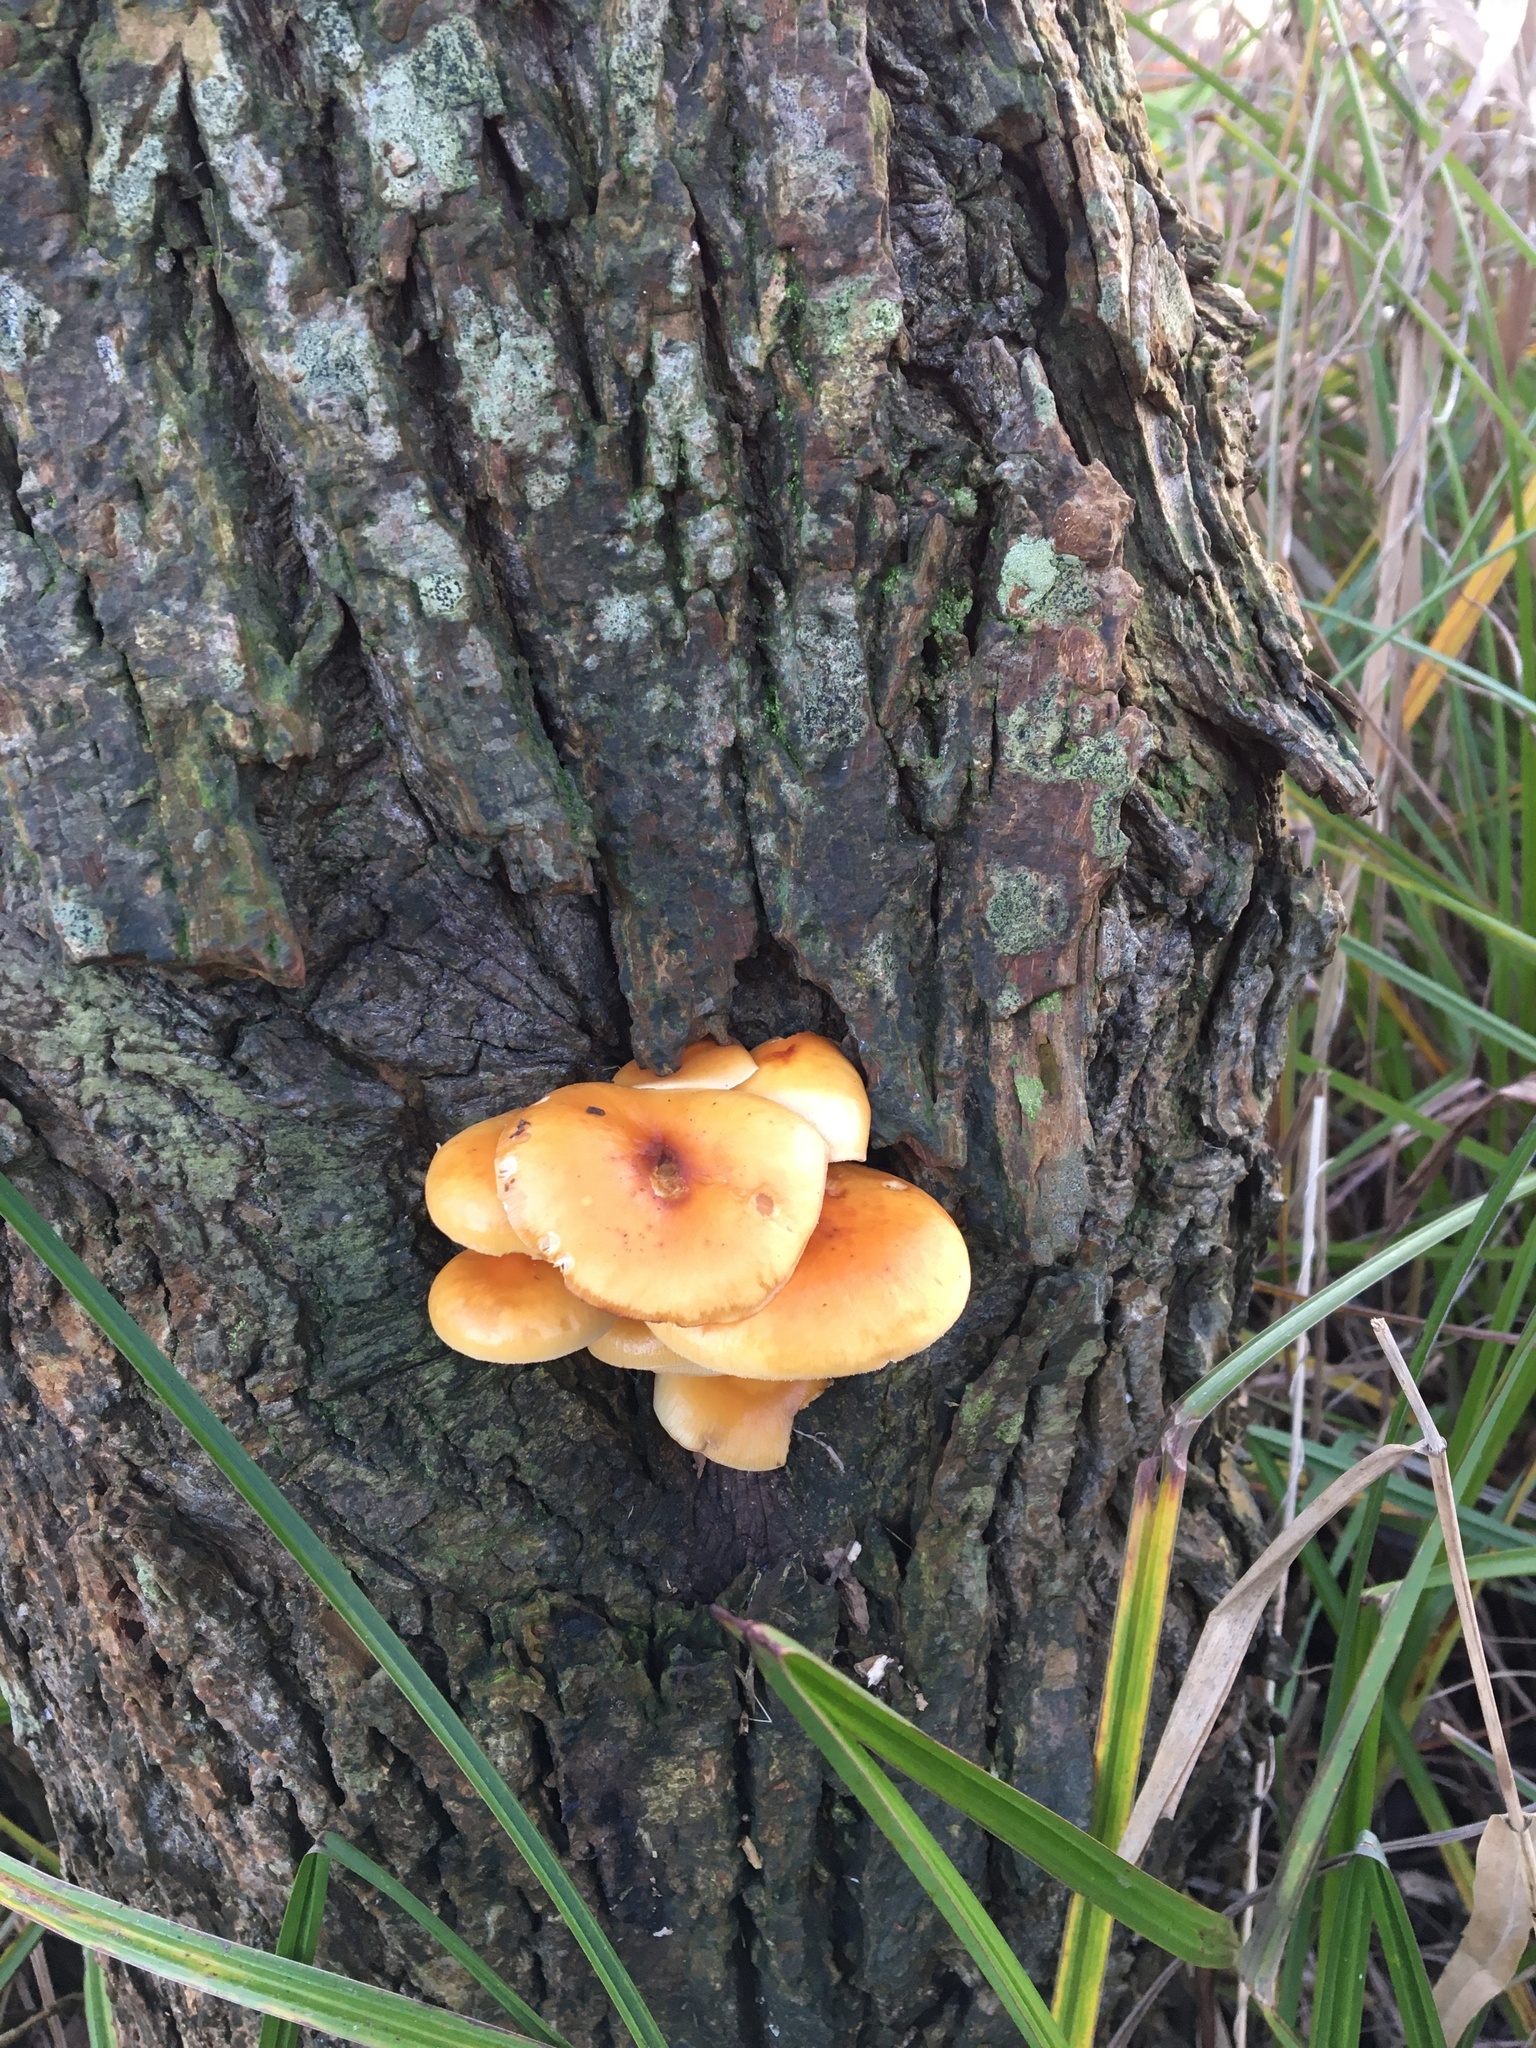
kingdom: Fungi
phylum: Basidiomycota
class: Agaricomycetes
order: Agaricales
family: Physalacriaceae
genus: Flammulina
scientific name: Flammulina
